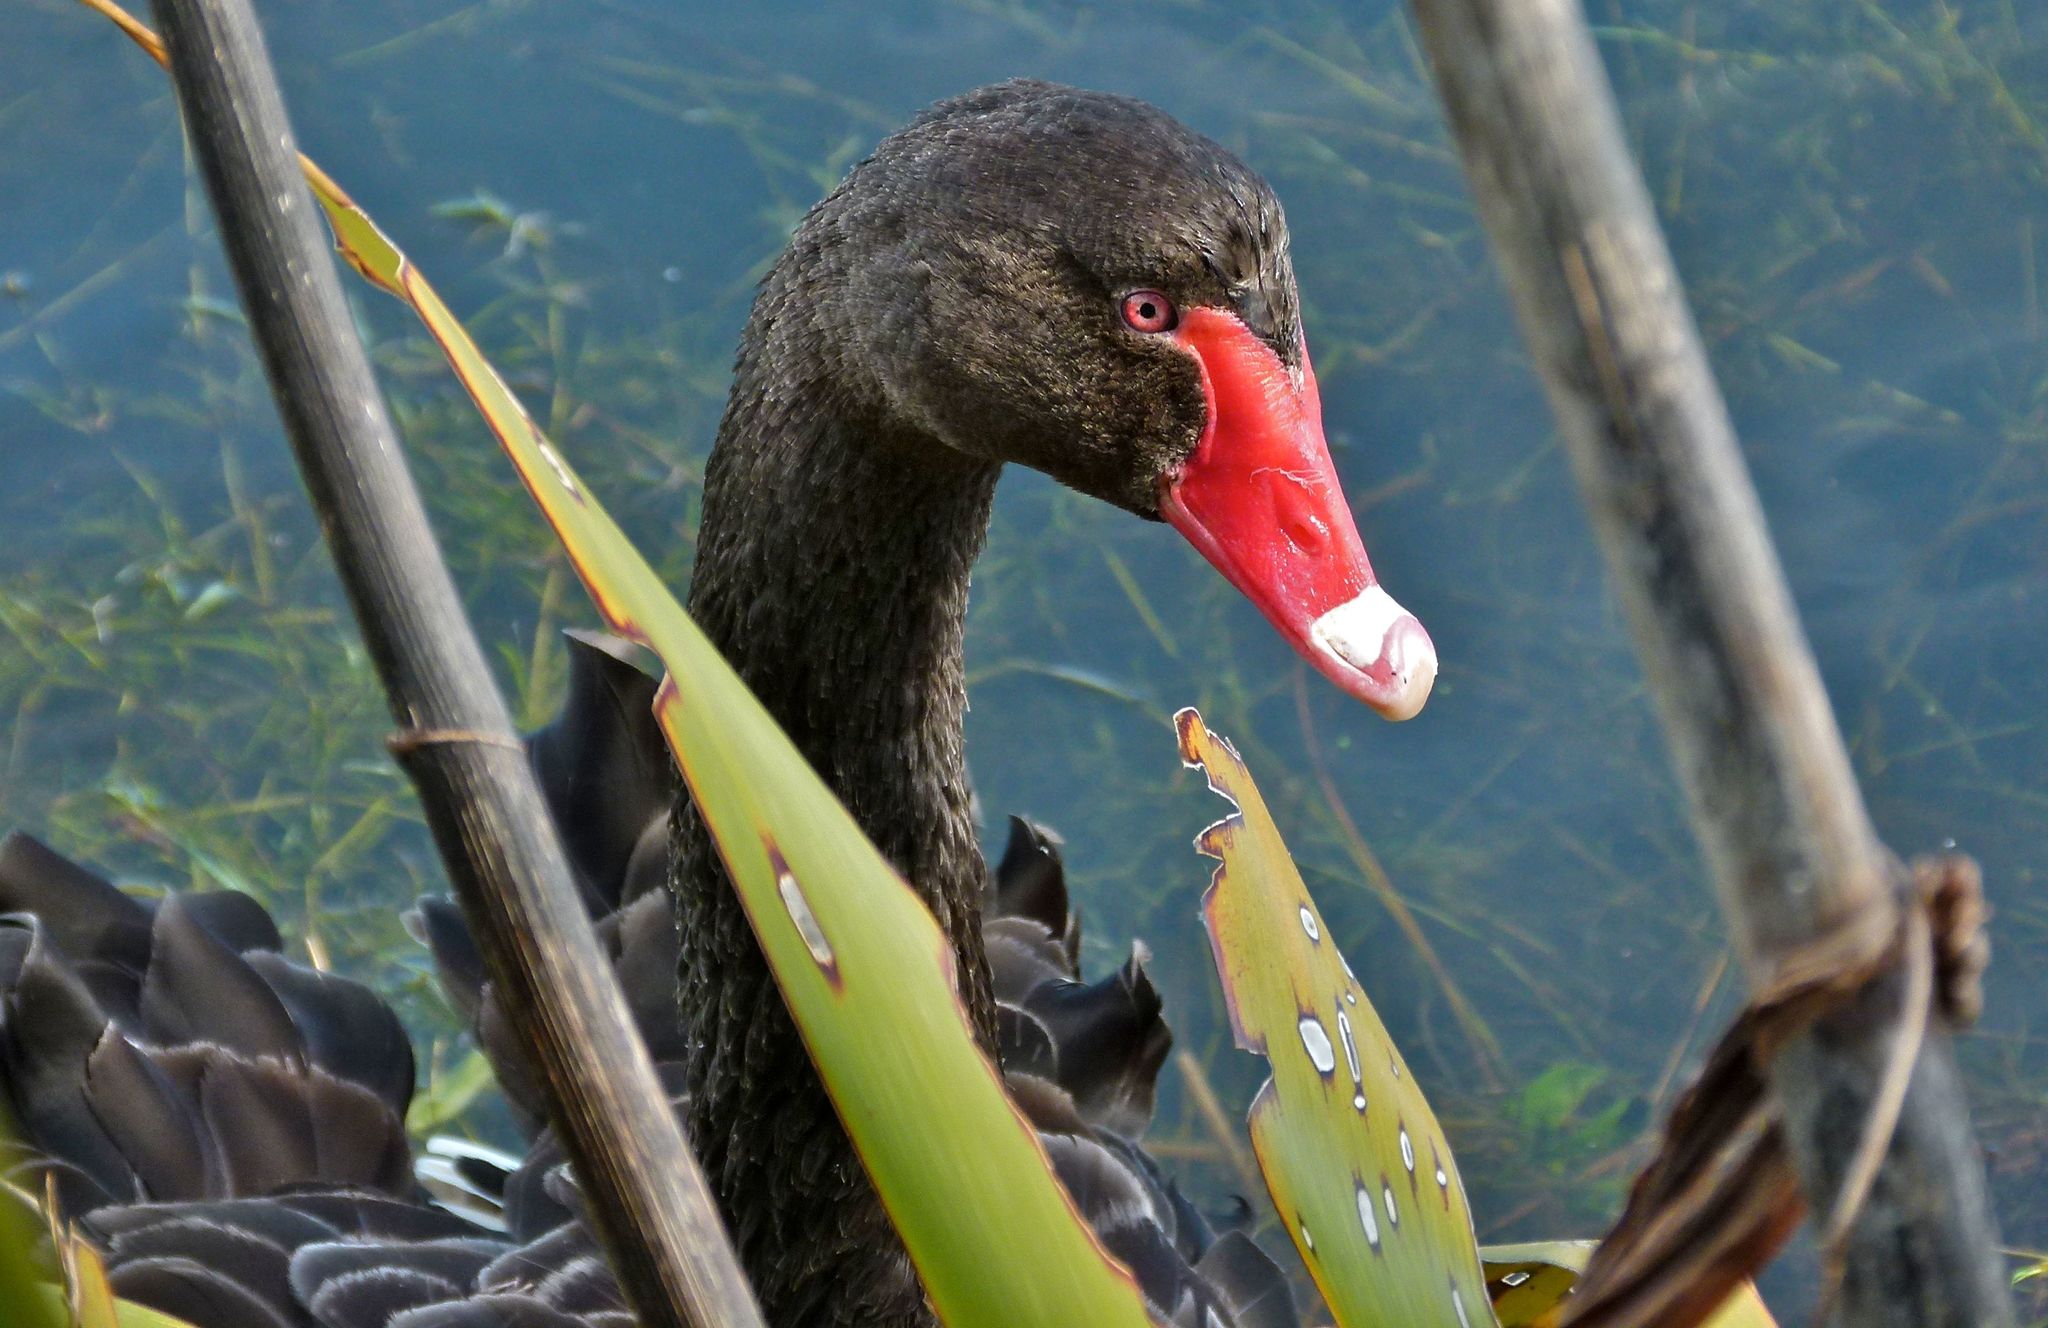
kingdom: Animalia
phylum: Chordata
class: Aves
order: Anseriformes
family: Anatidae
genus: Cygnus
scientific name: Cygnus atratus
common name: Black swan
